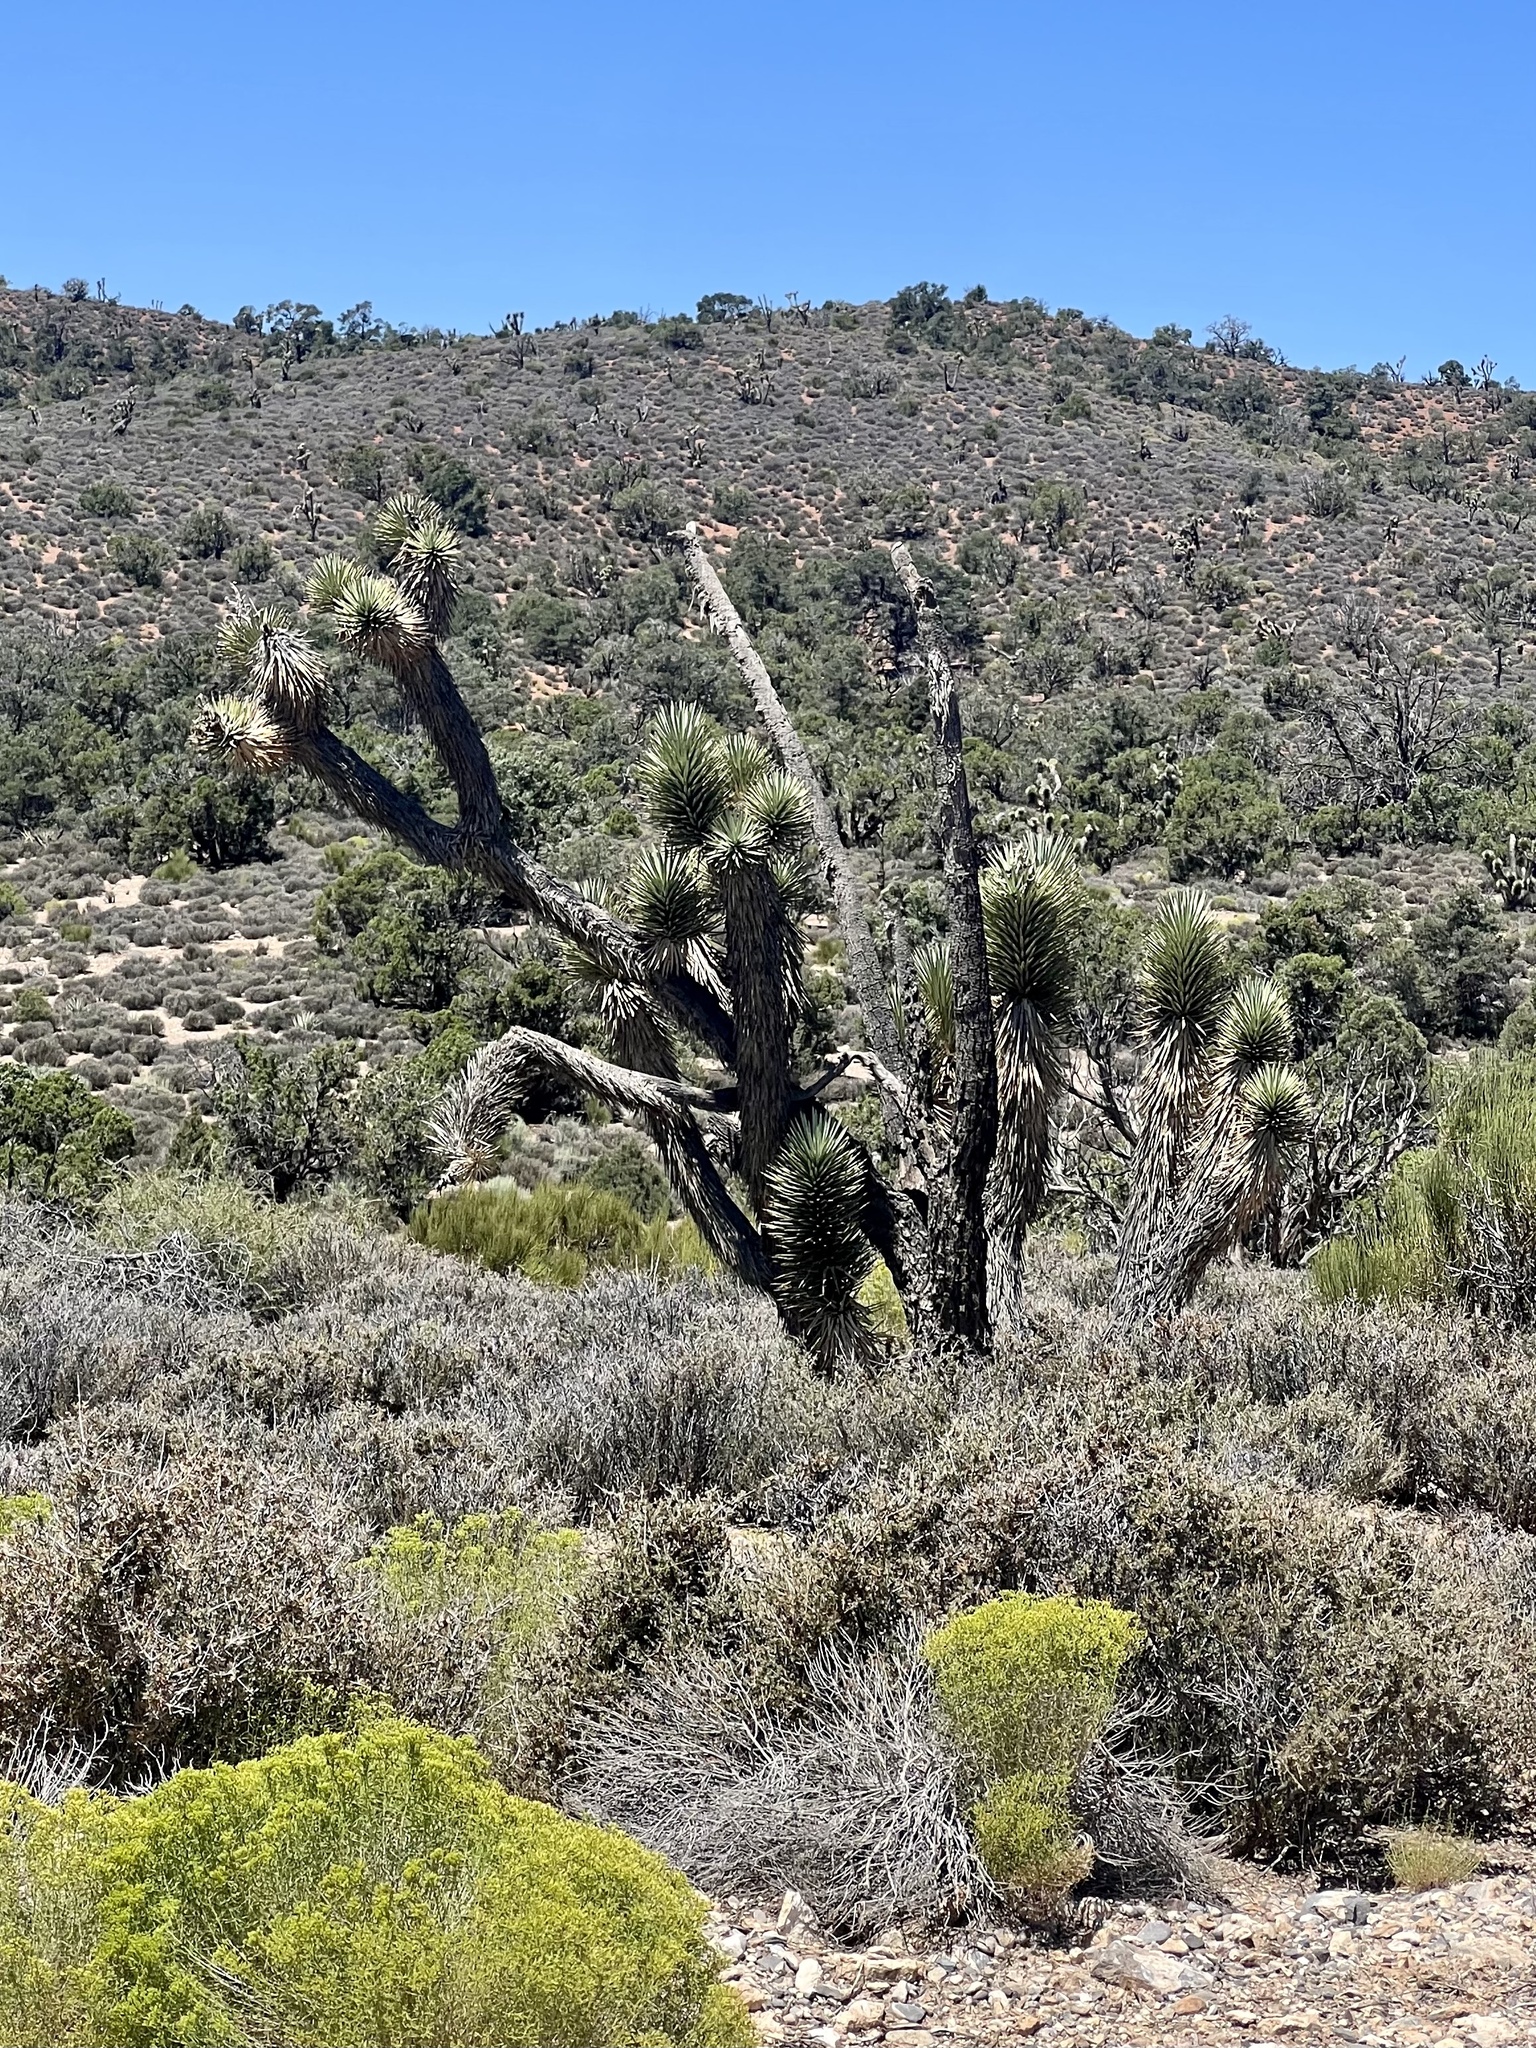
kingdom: Plantae
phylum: Tracheophyta
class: Liliopsida
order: Asparagales
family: Asparagaceae
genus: Yucca
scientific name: Yucca brevifolia
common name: Joshua tree
